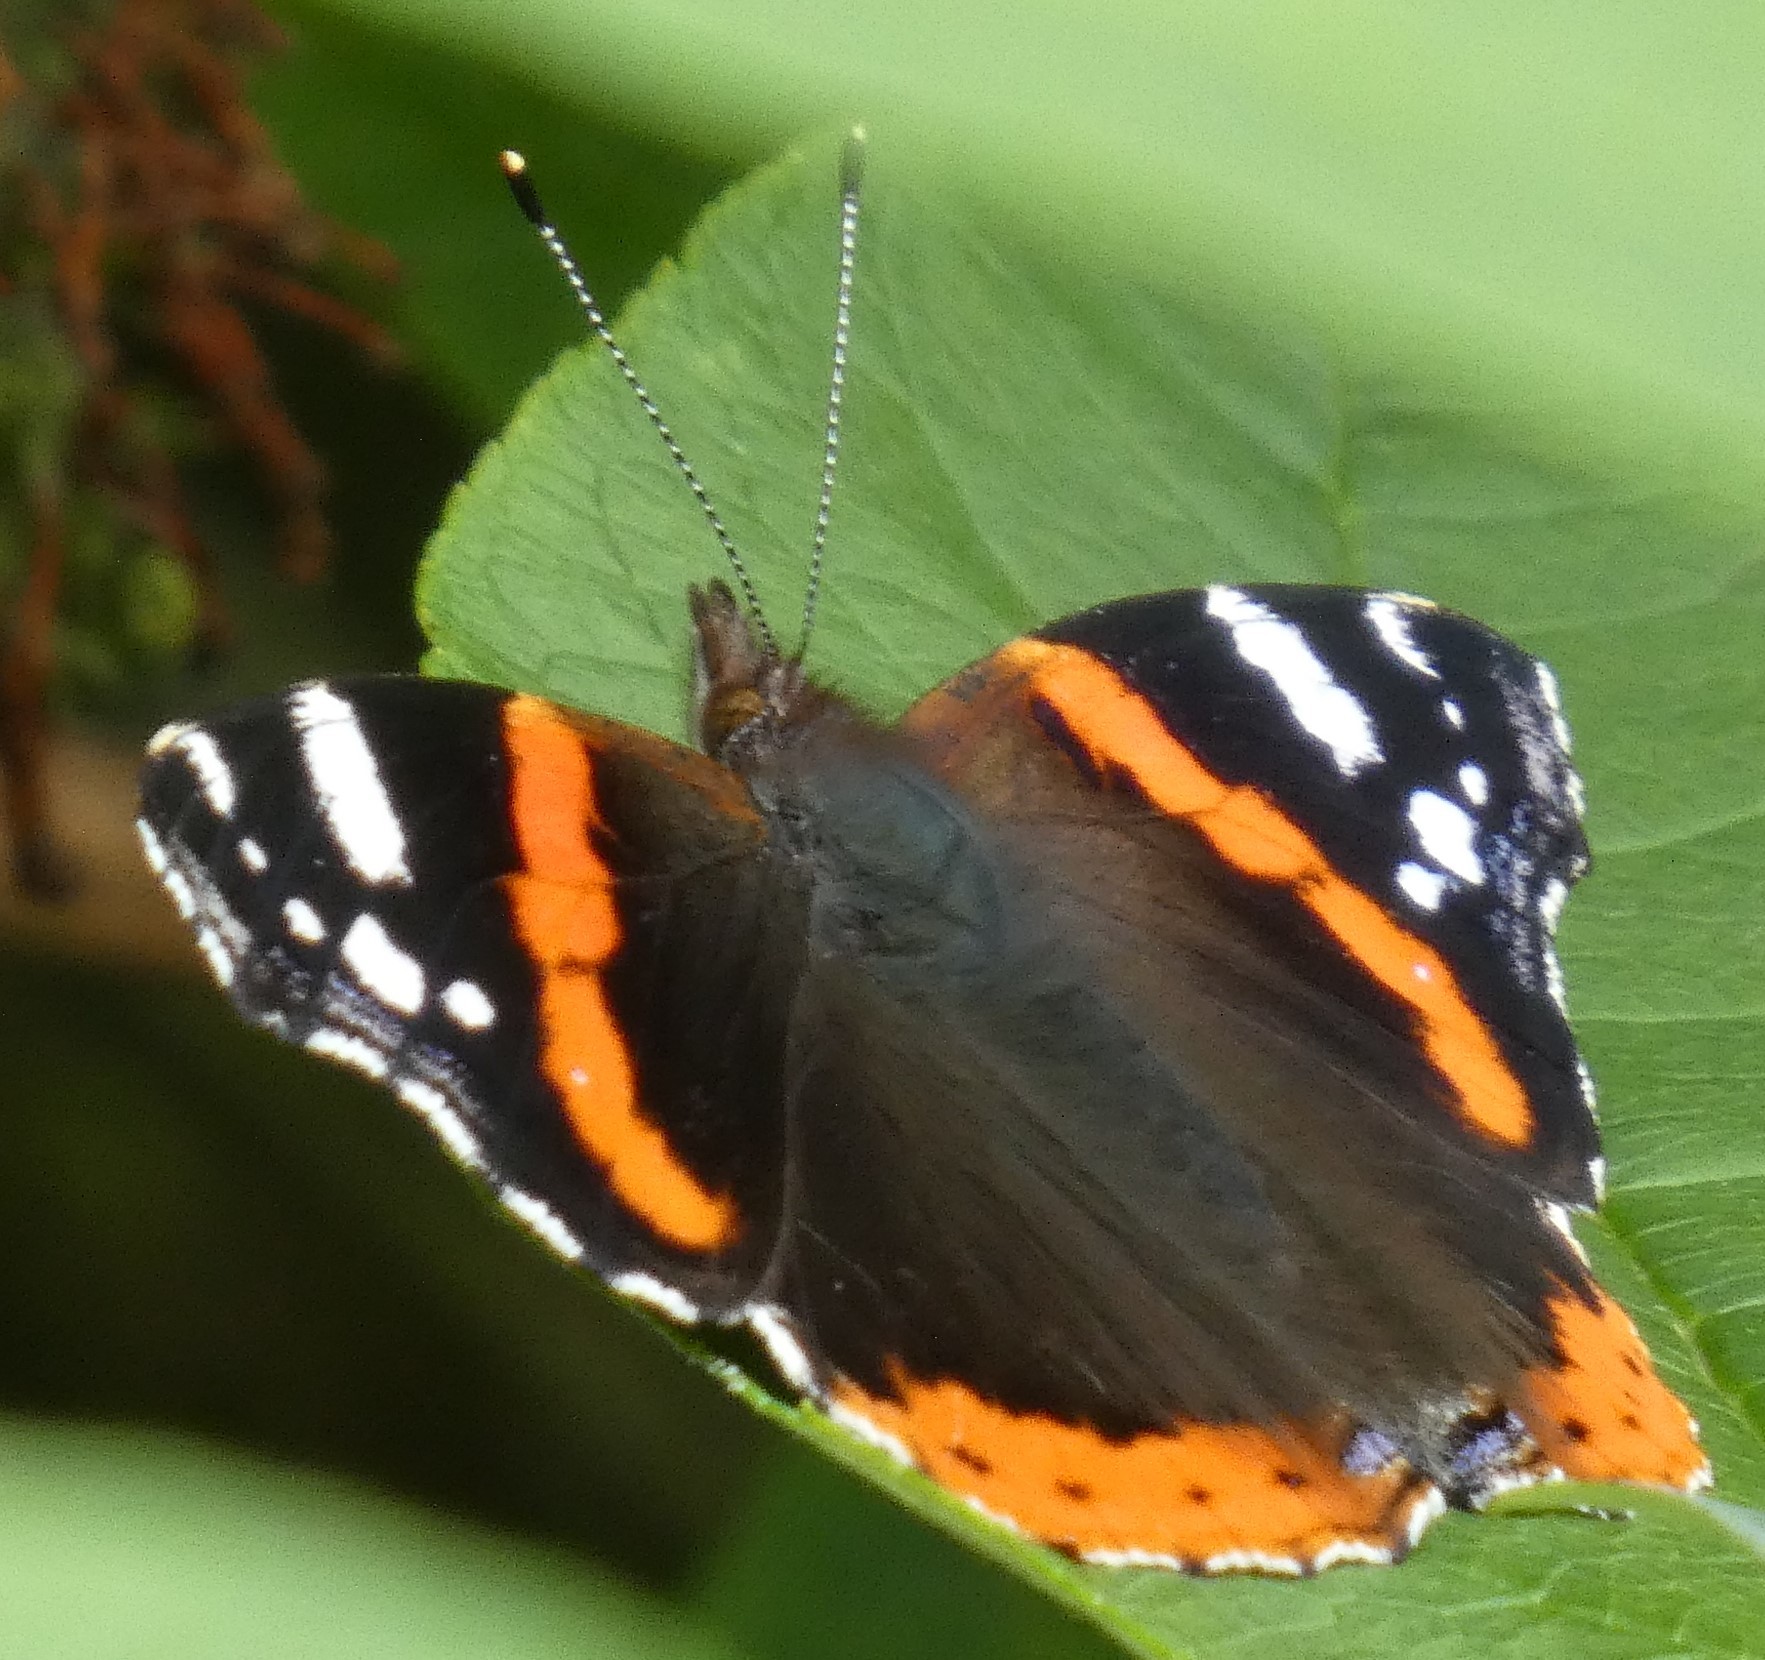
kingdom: Animalia
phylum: Arthropoda
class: Insecta
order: Lepidoptera
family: Nymphalidae
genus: Vanessa
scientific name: Vanessa atalanta
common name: Red admiral
